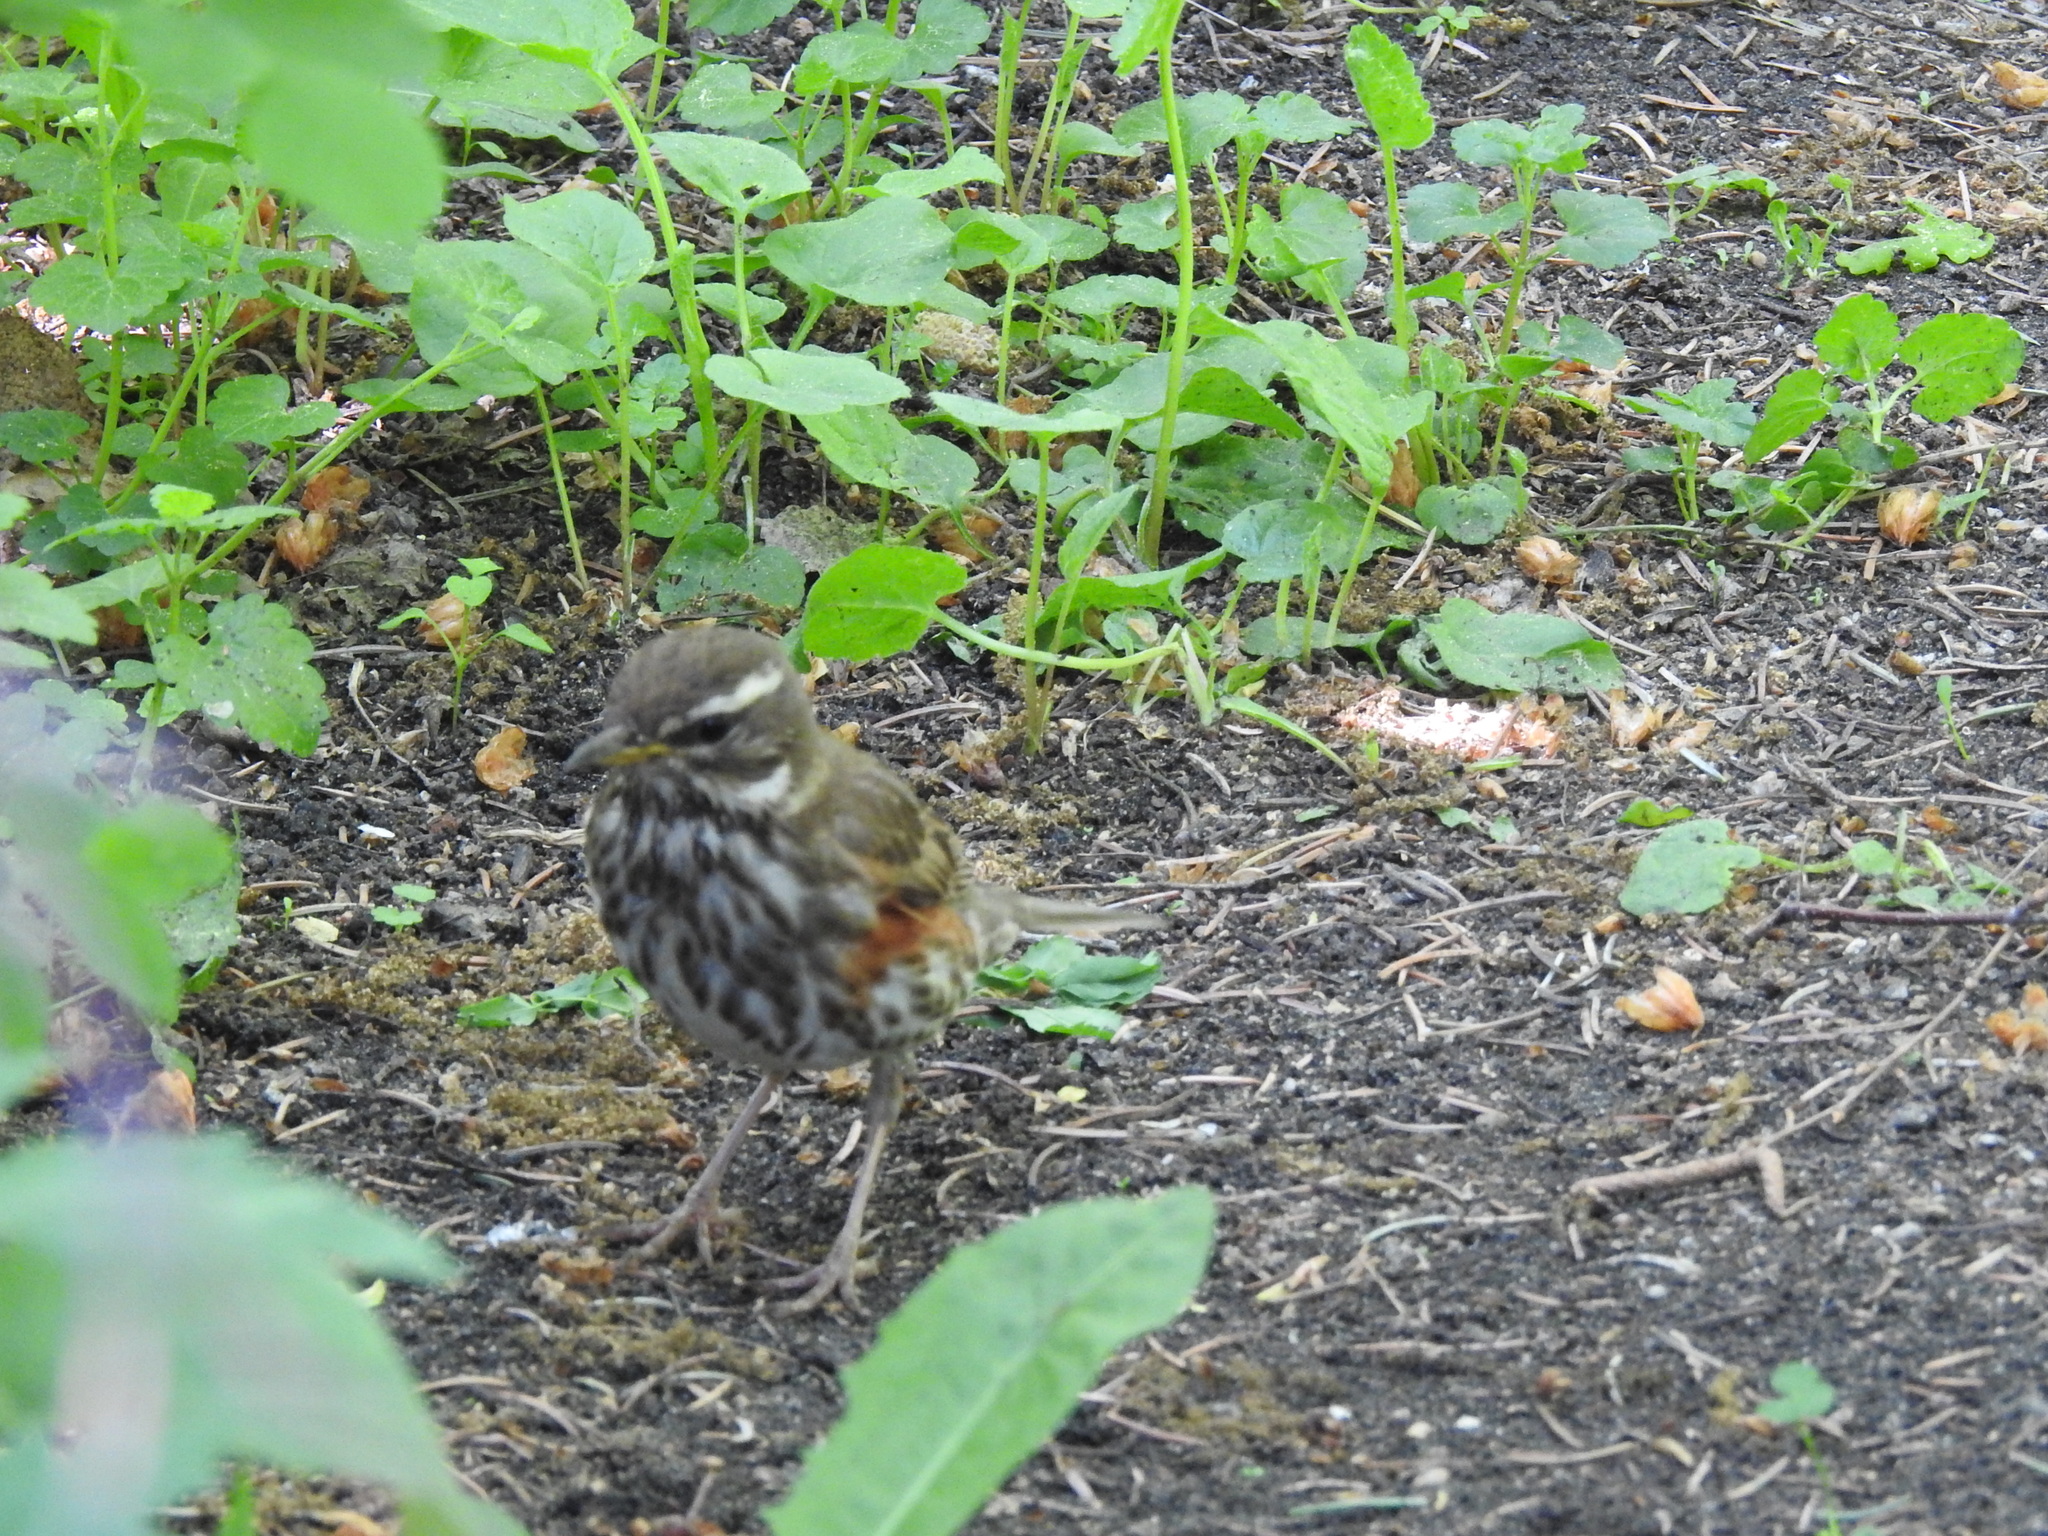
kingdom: Animalia
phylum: Chordata
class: Aves
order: Passeriformes
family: Turdidae
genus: Turdus
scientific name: Turdus iliacus
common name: Redwing
